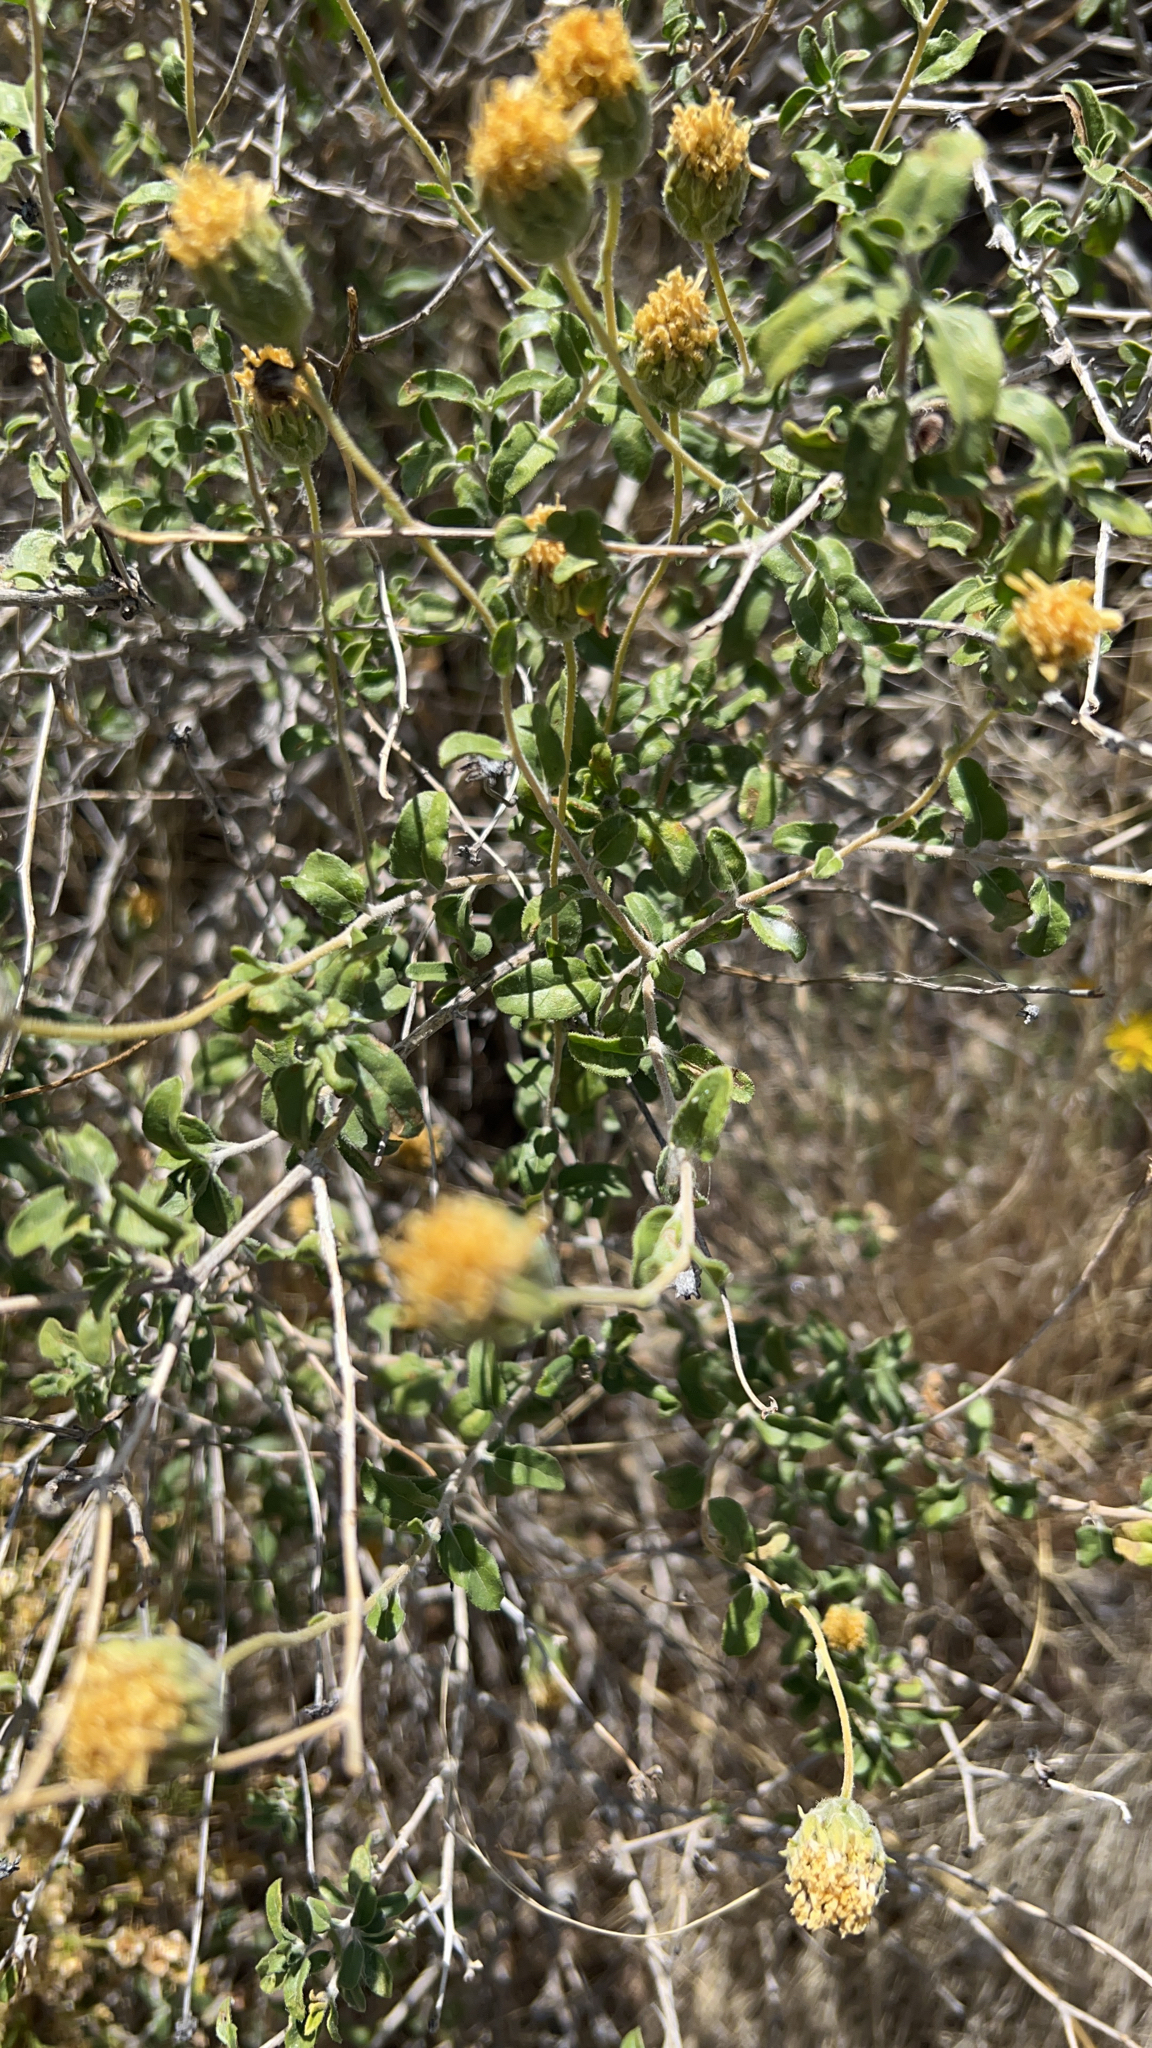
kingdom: Plantae
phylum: Tracheophyta
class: Magnoliopsida
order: Asterales
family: Asteraceae
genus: Encelia
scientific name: Encelia frutescens
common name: Bush encelia
